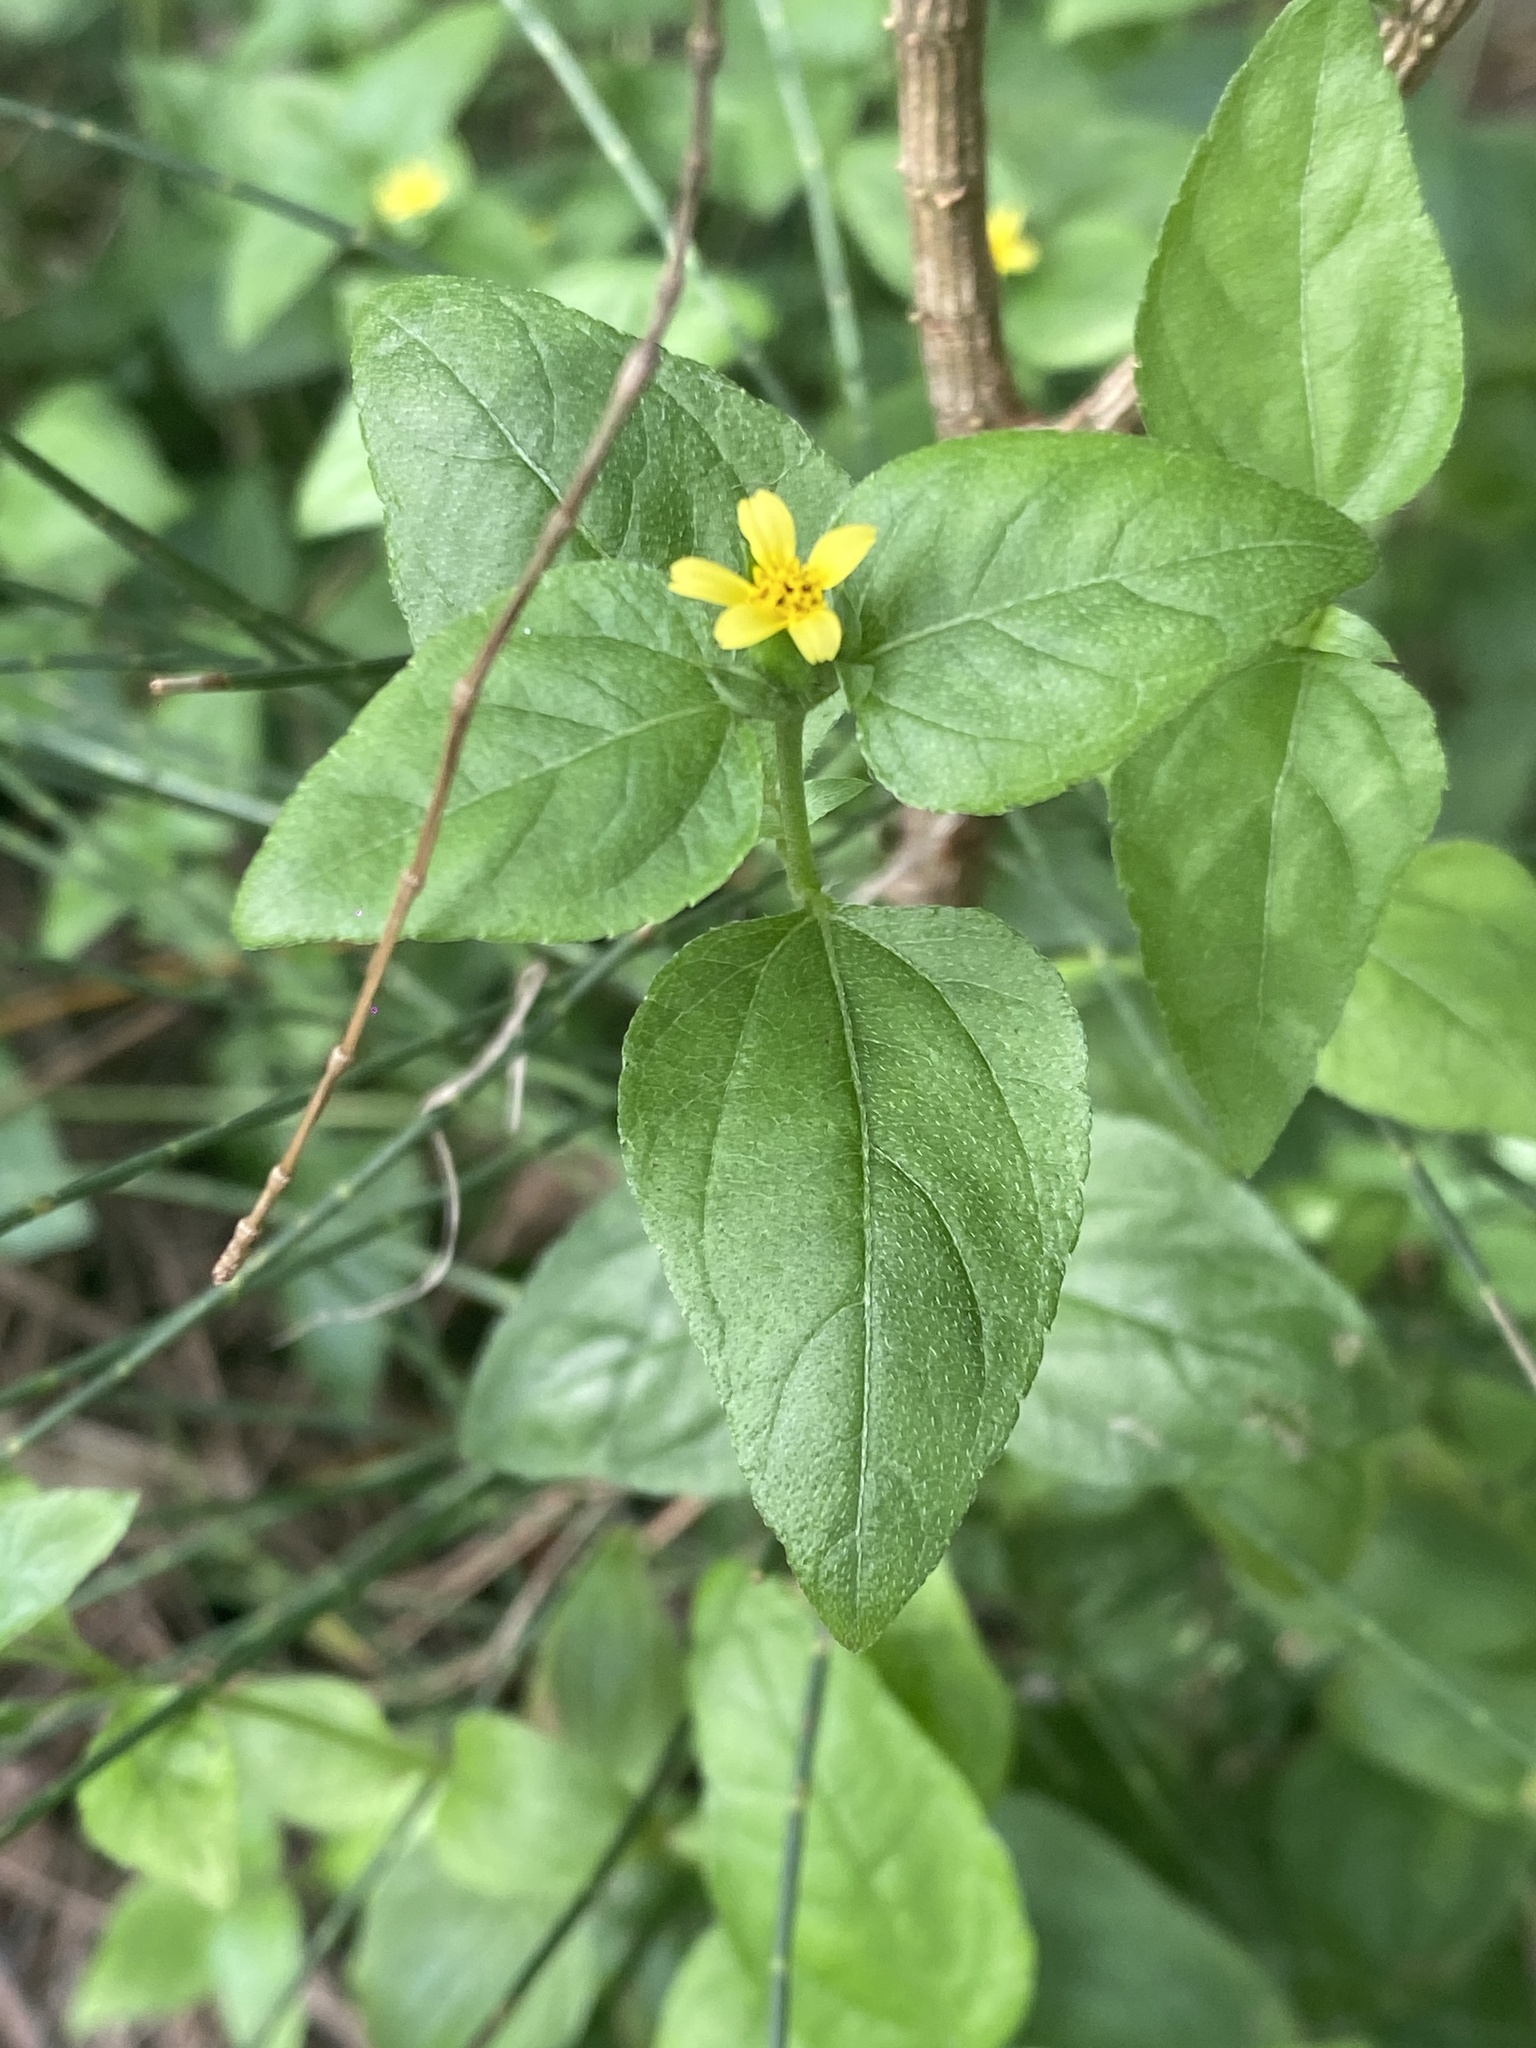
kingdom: Plantae
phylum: Tracheophyta
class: Magnoliopsida
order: Asterales
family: Asteraceae
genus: Calyptocarpus
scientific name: Calyptocarpus vialis
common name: Straggler daisy
